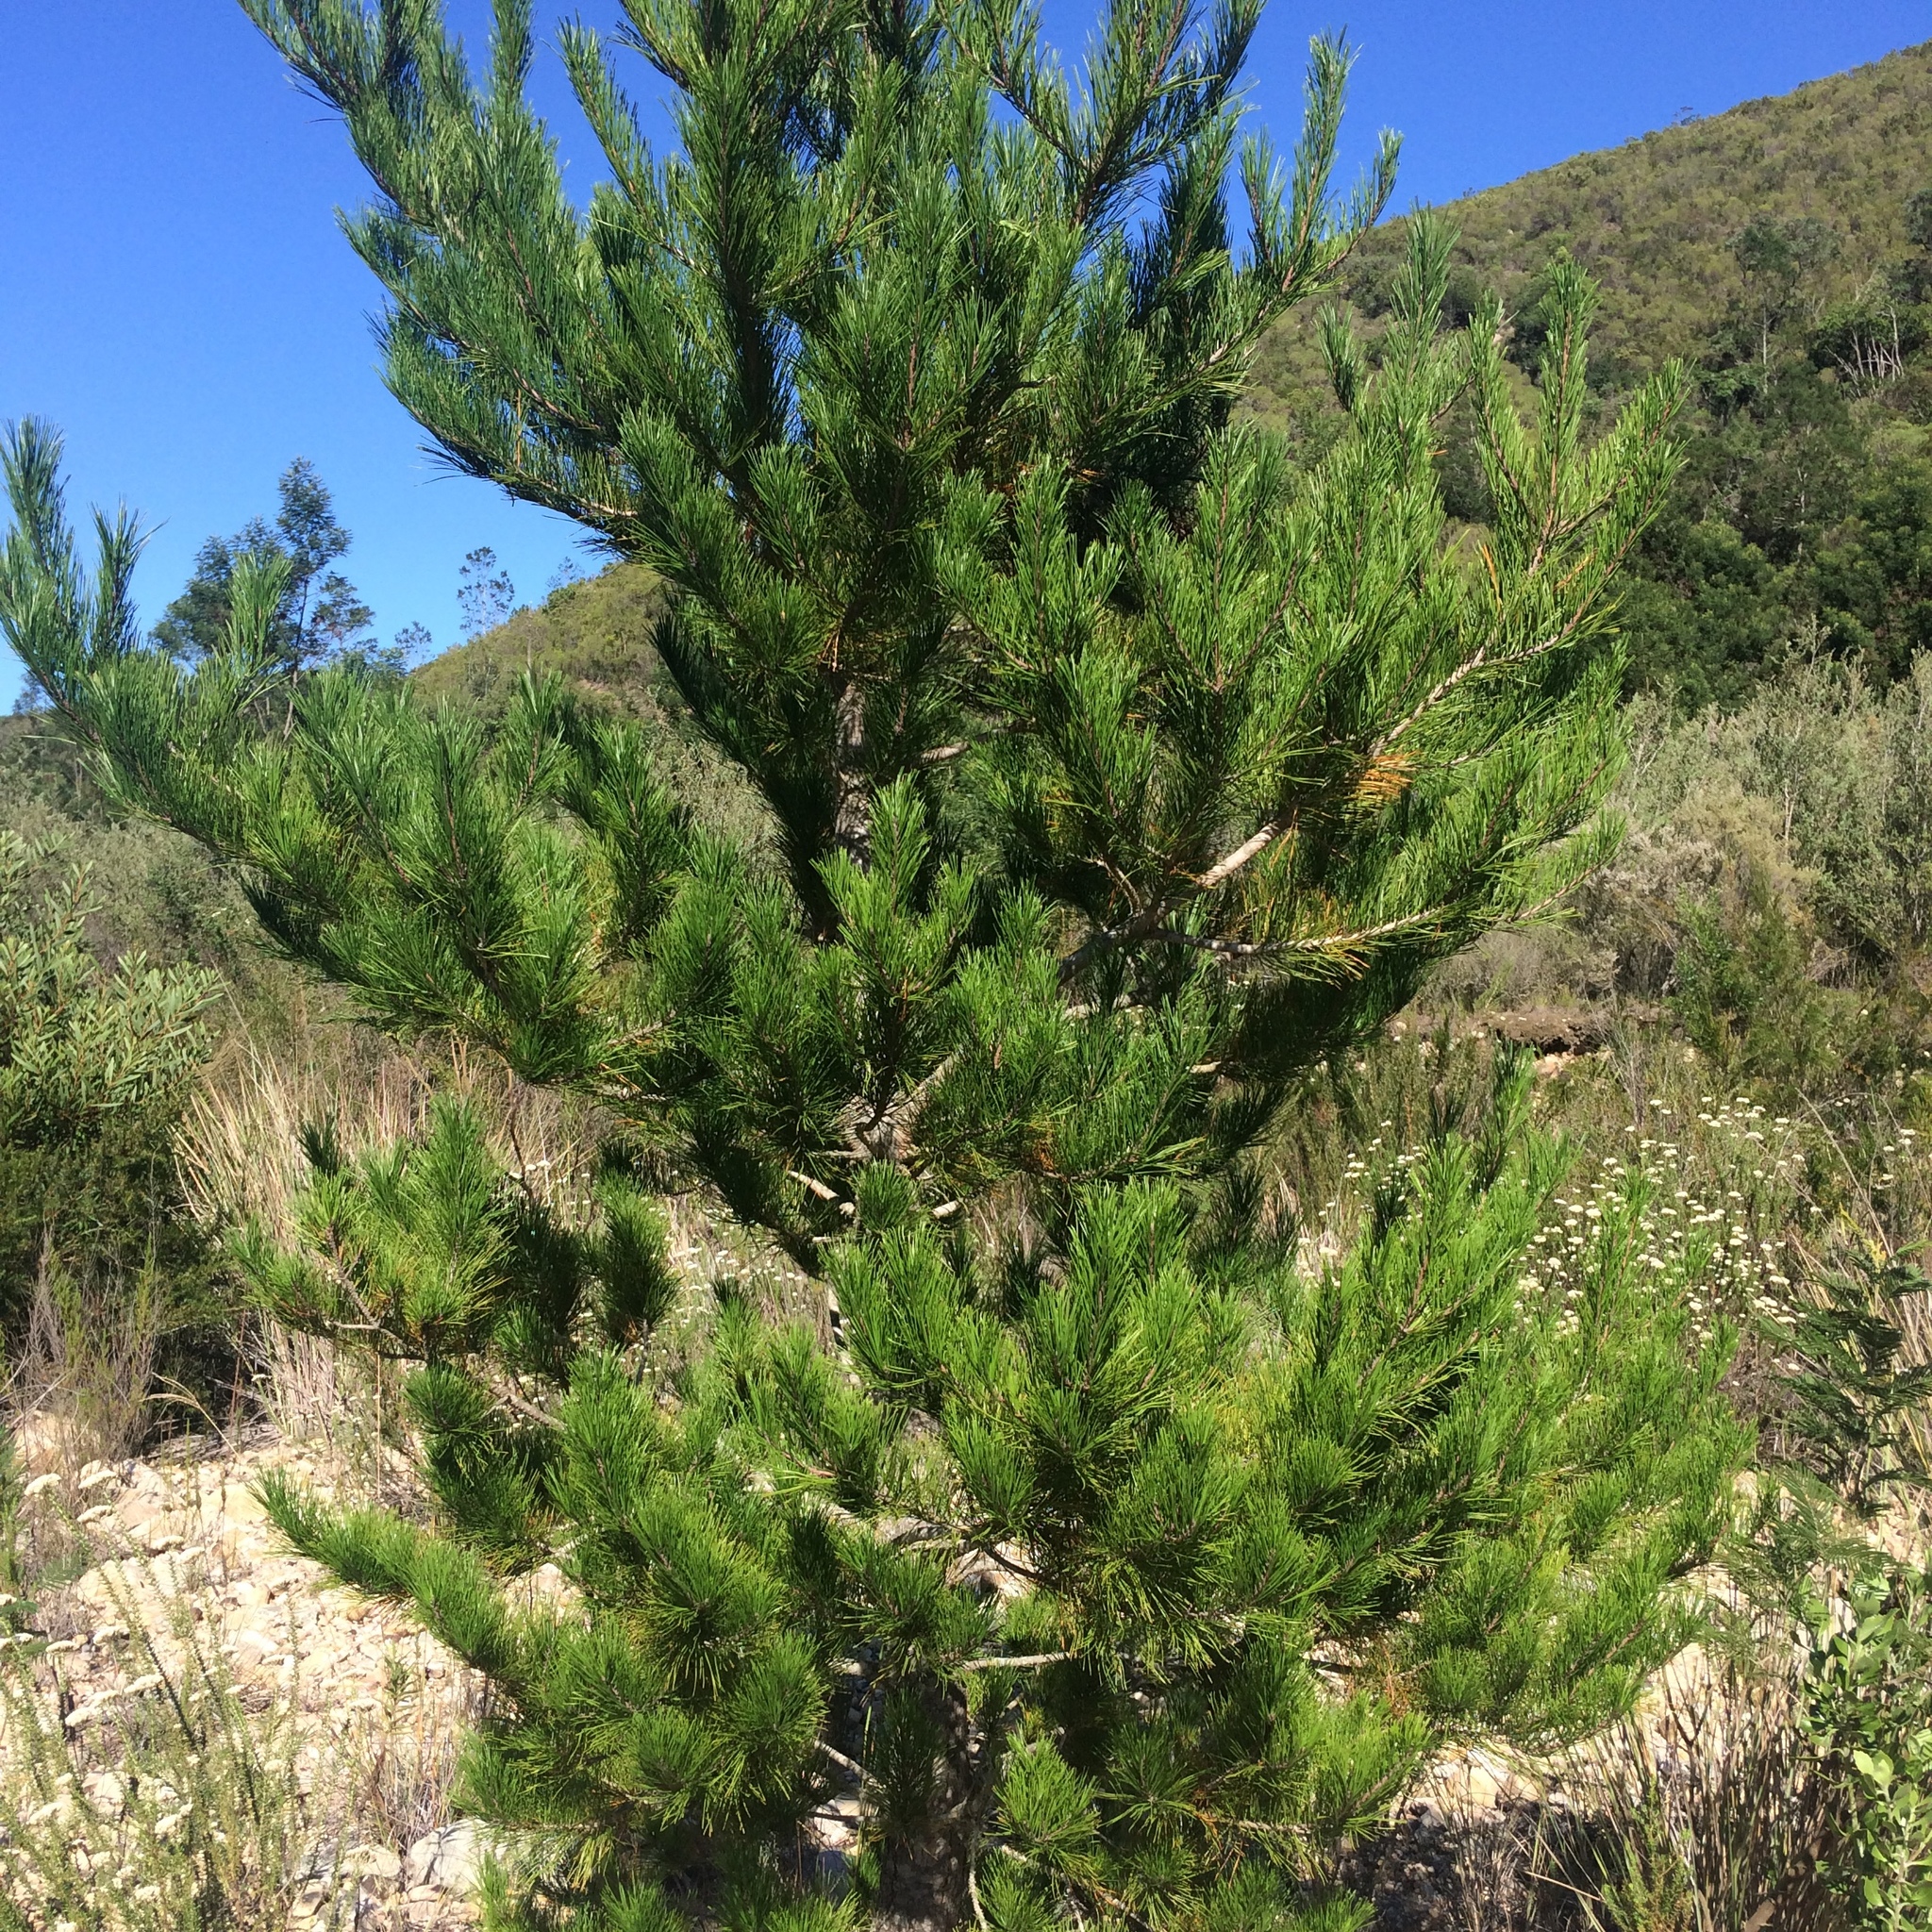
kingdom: Plantae
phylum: Tracheophyta
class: Pinopsida
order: Pinales
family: Pinaceae
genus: Pinus
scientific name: Pinus radiata
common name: Monterey pine
